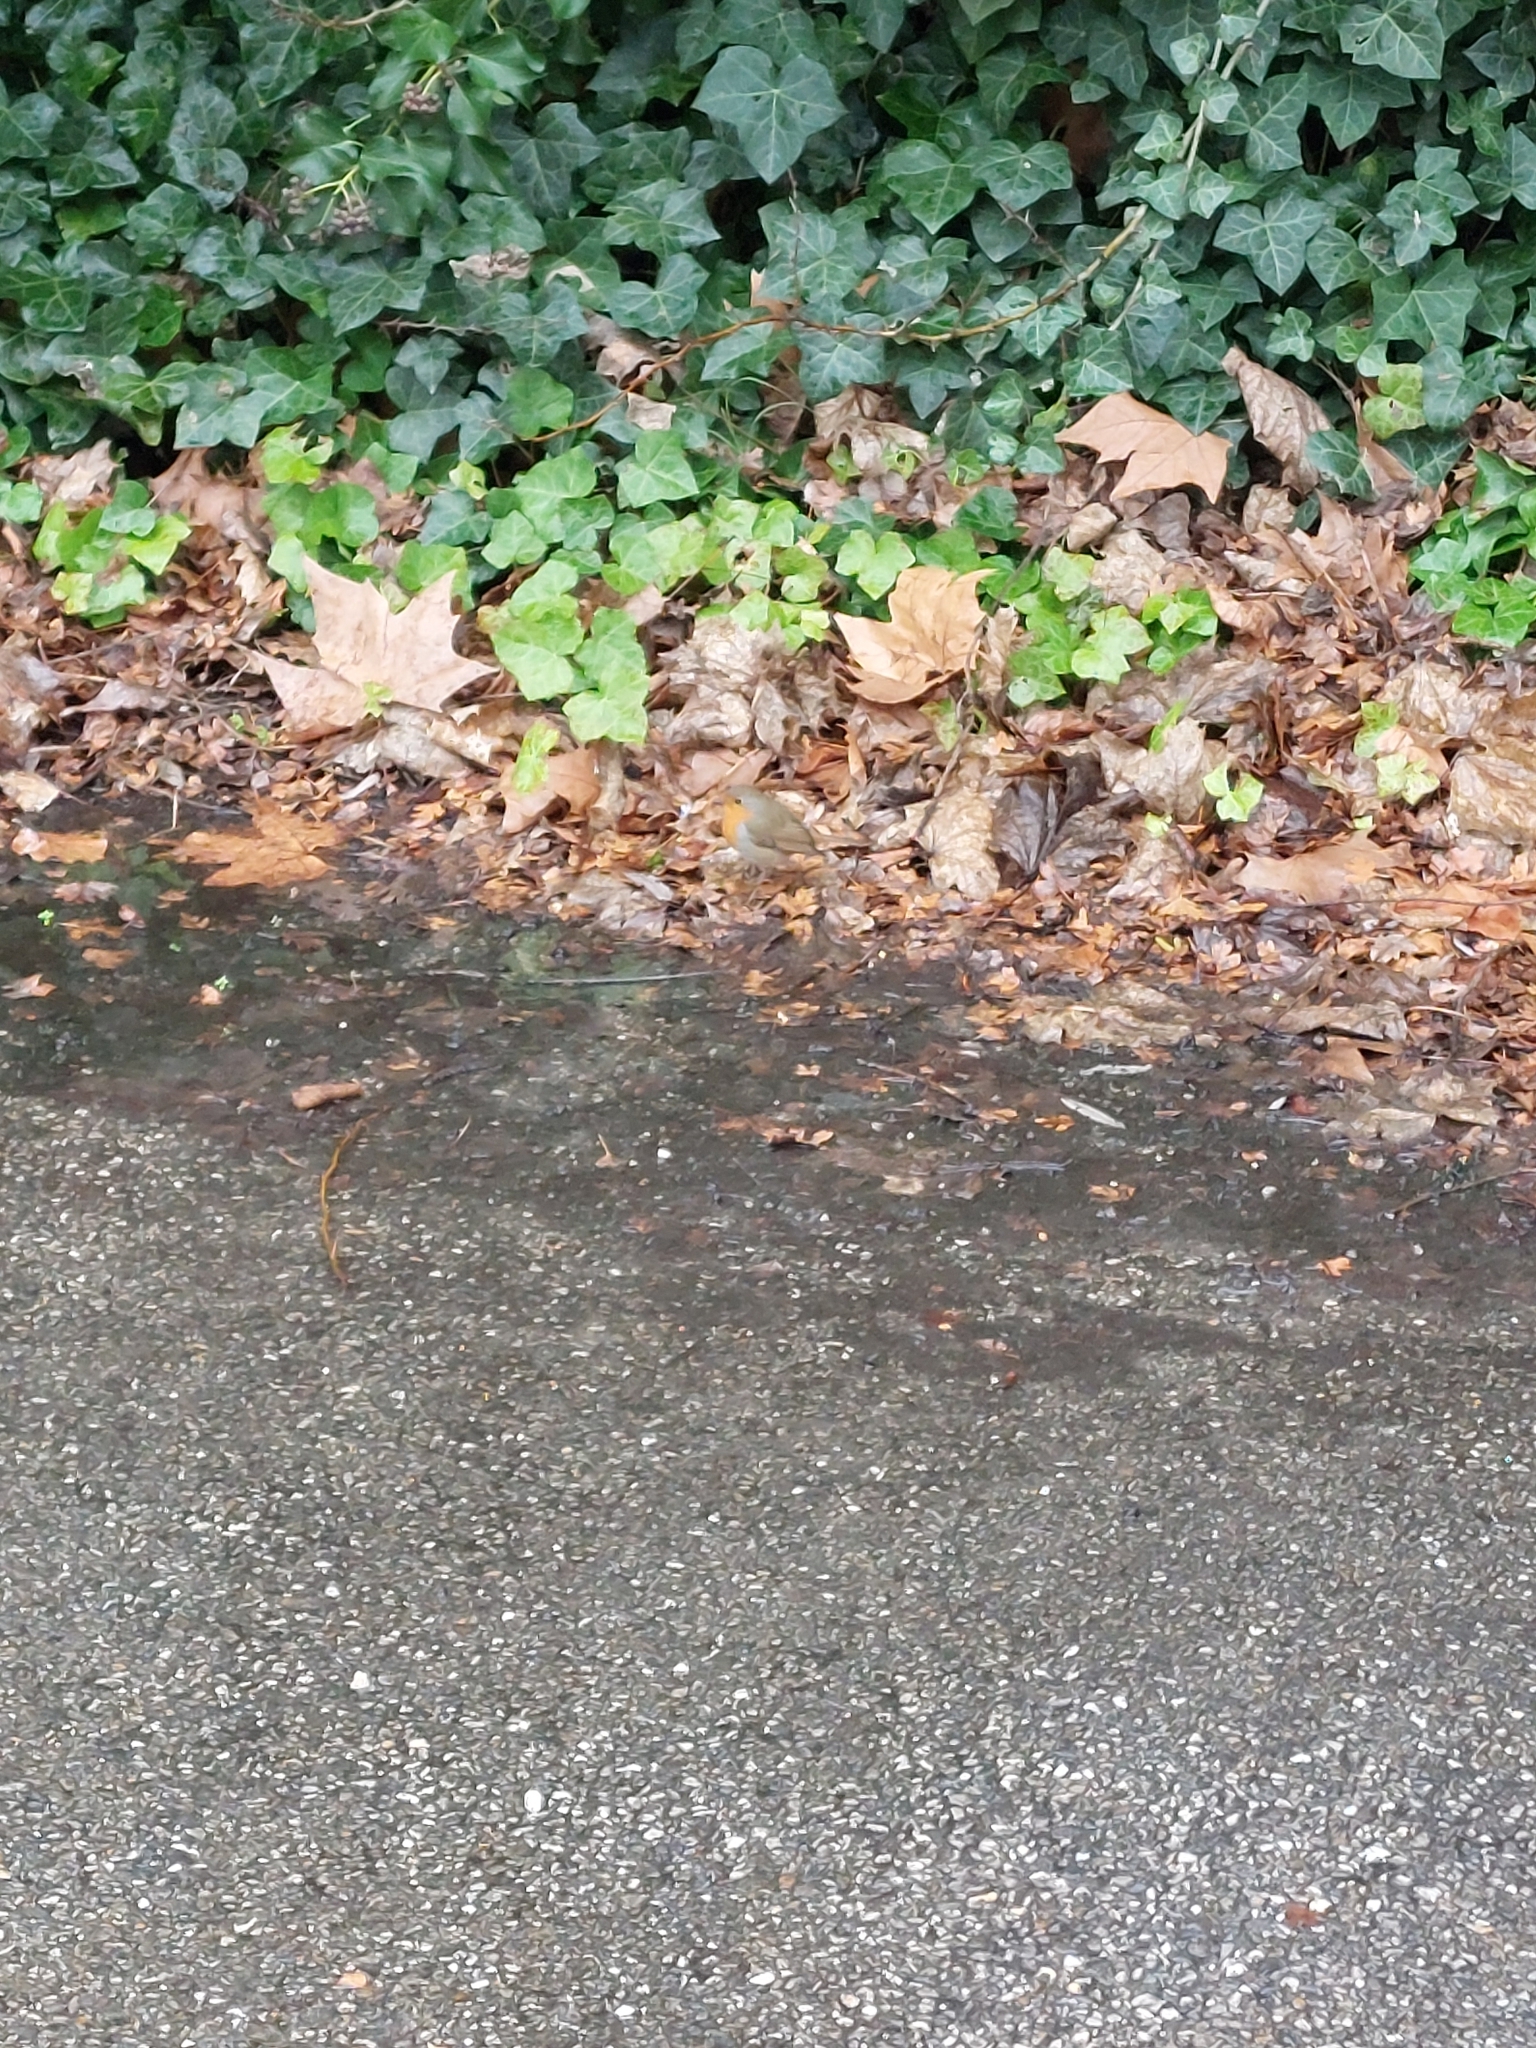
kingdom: Animalia
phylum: Chordata
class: Aves
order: Passeriformes
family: Muscicapidae
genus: Erithacus
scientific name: Erithacus rubecula
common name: European robin
